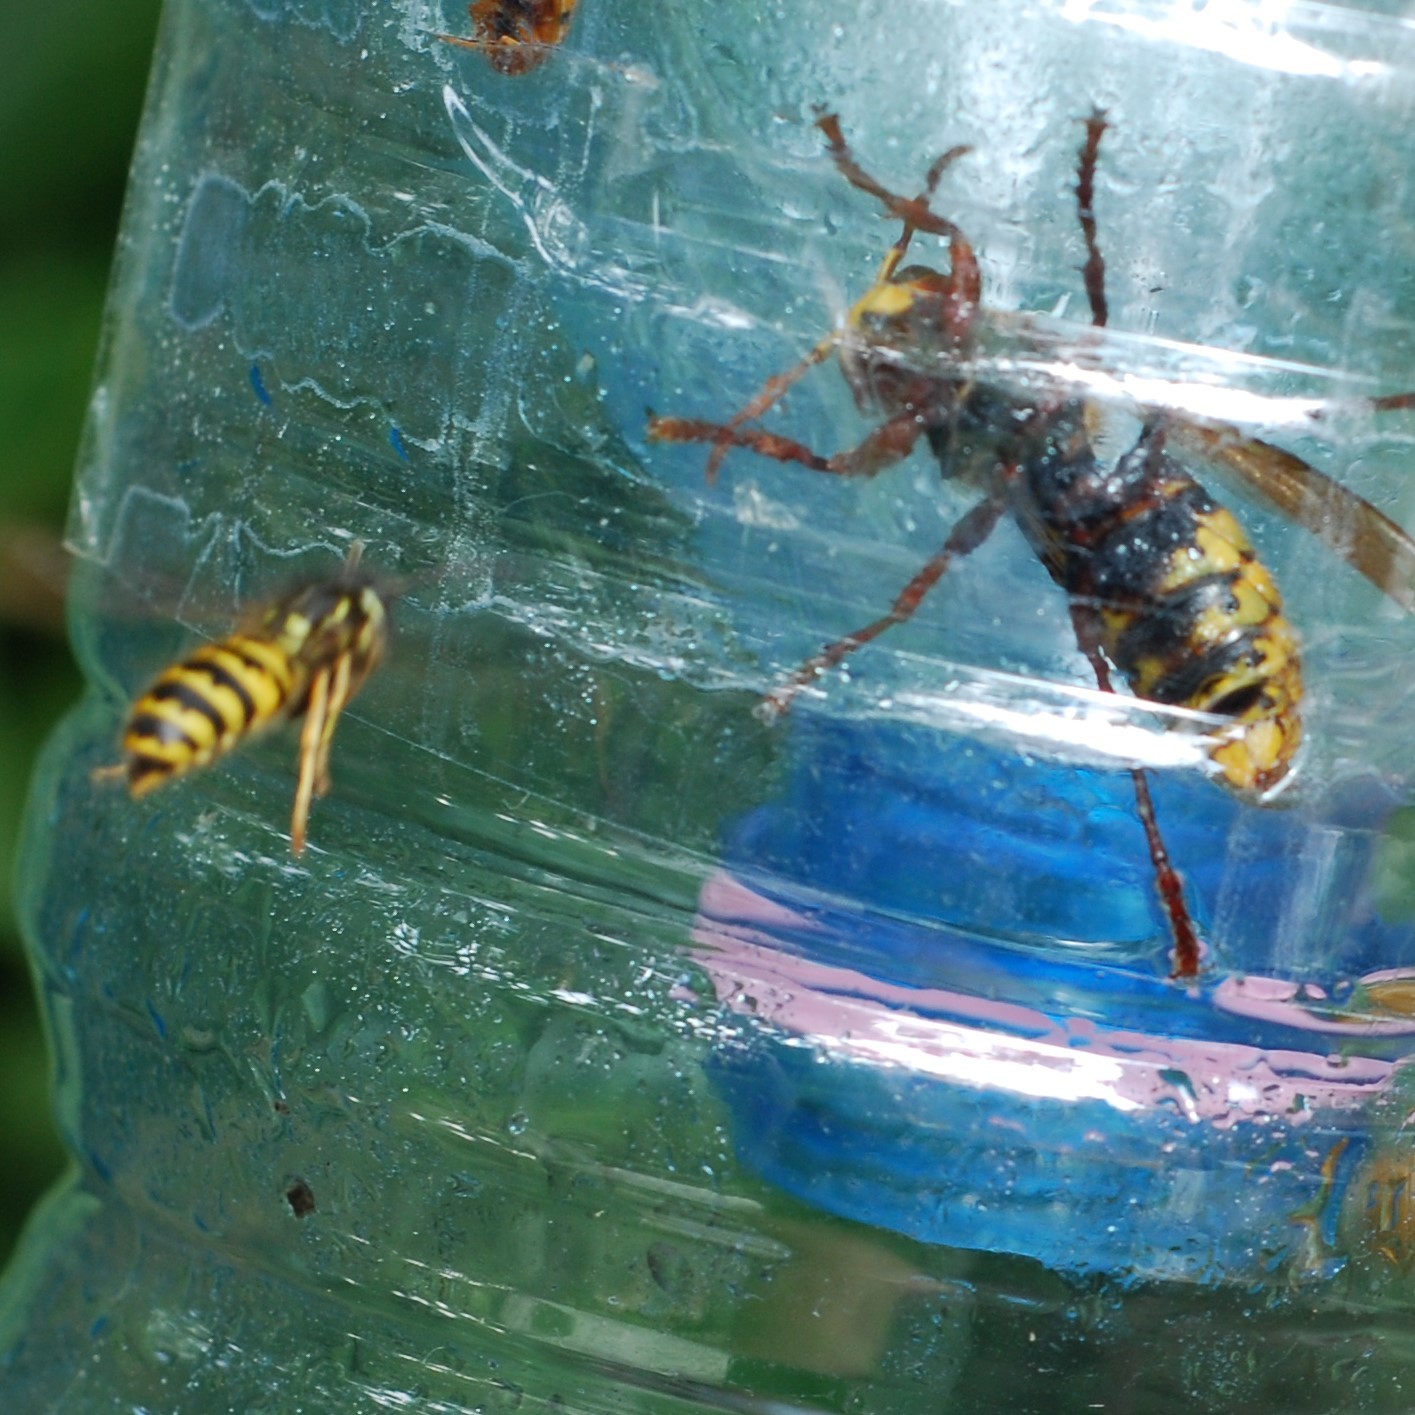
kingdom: Animalia
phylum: Arthropoda
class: Insecta
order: Hymenoptera
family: Vespidae
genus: Vespa
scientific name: Vespa crabro
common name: Hornet
